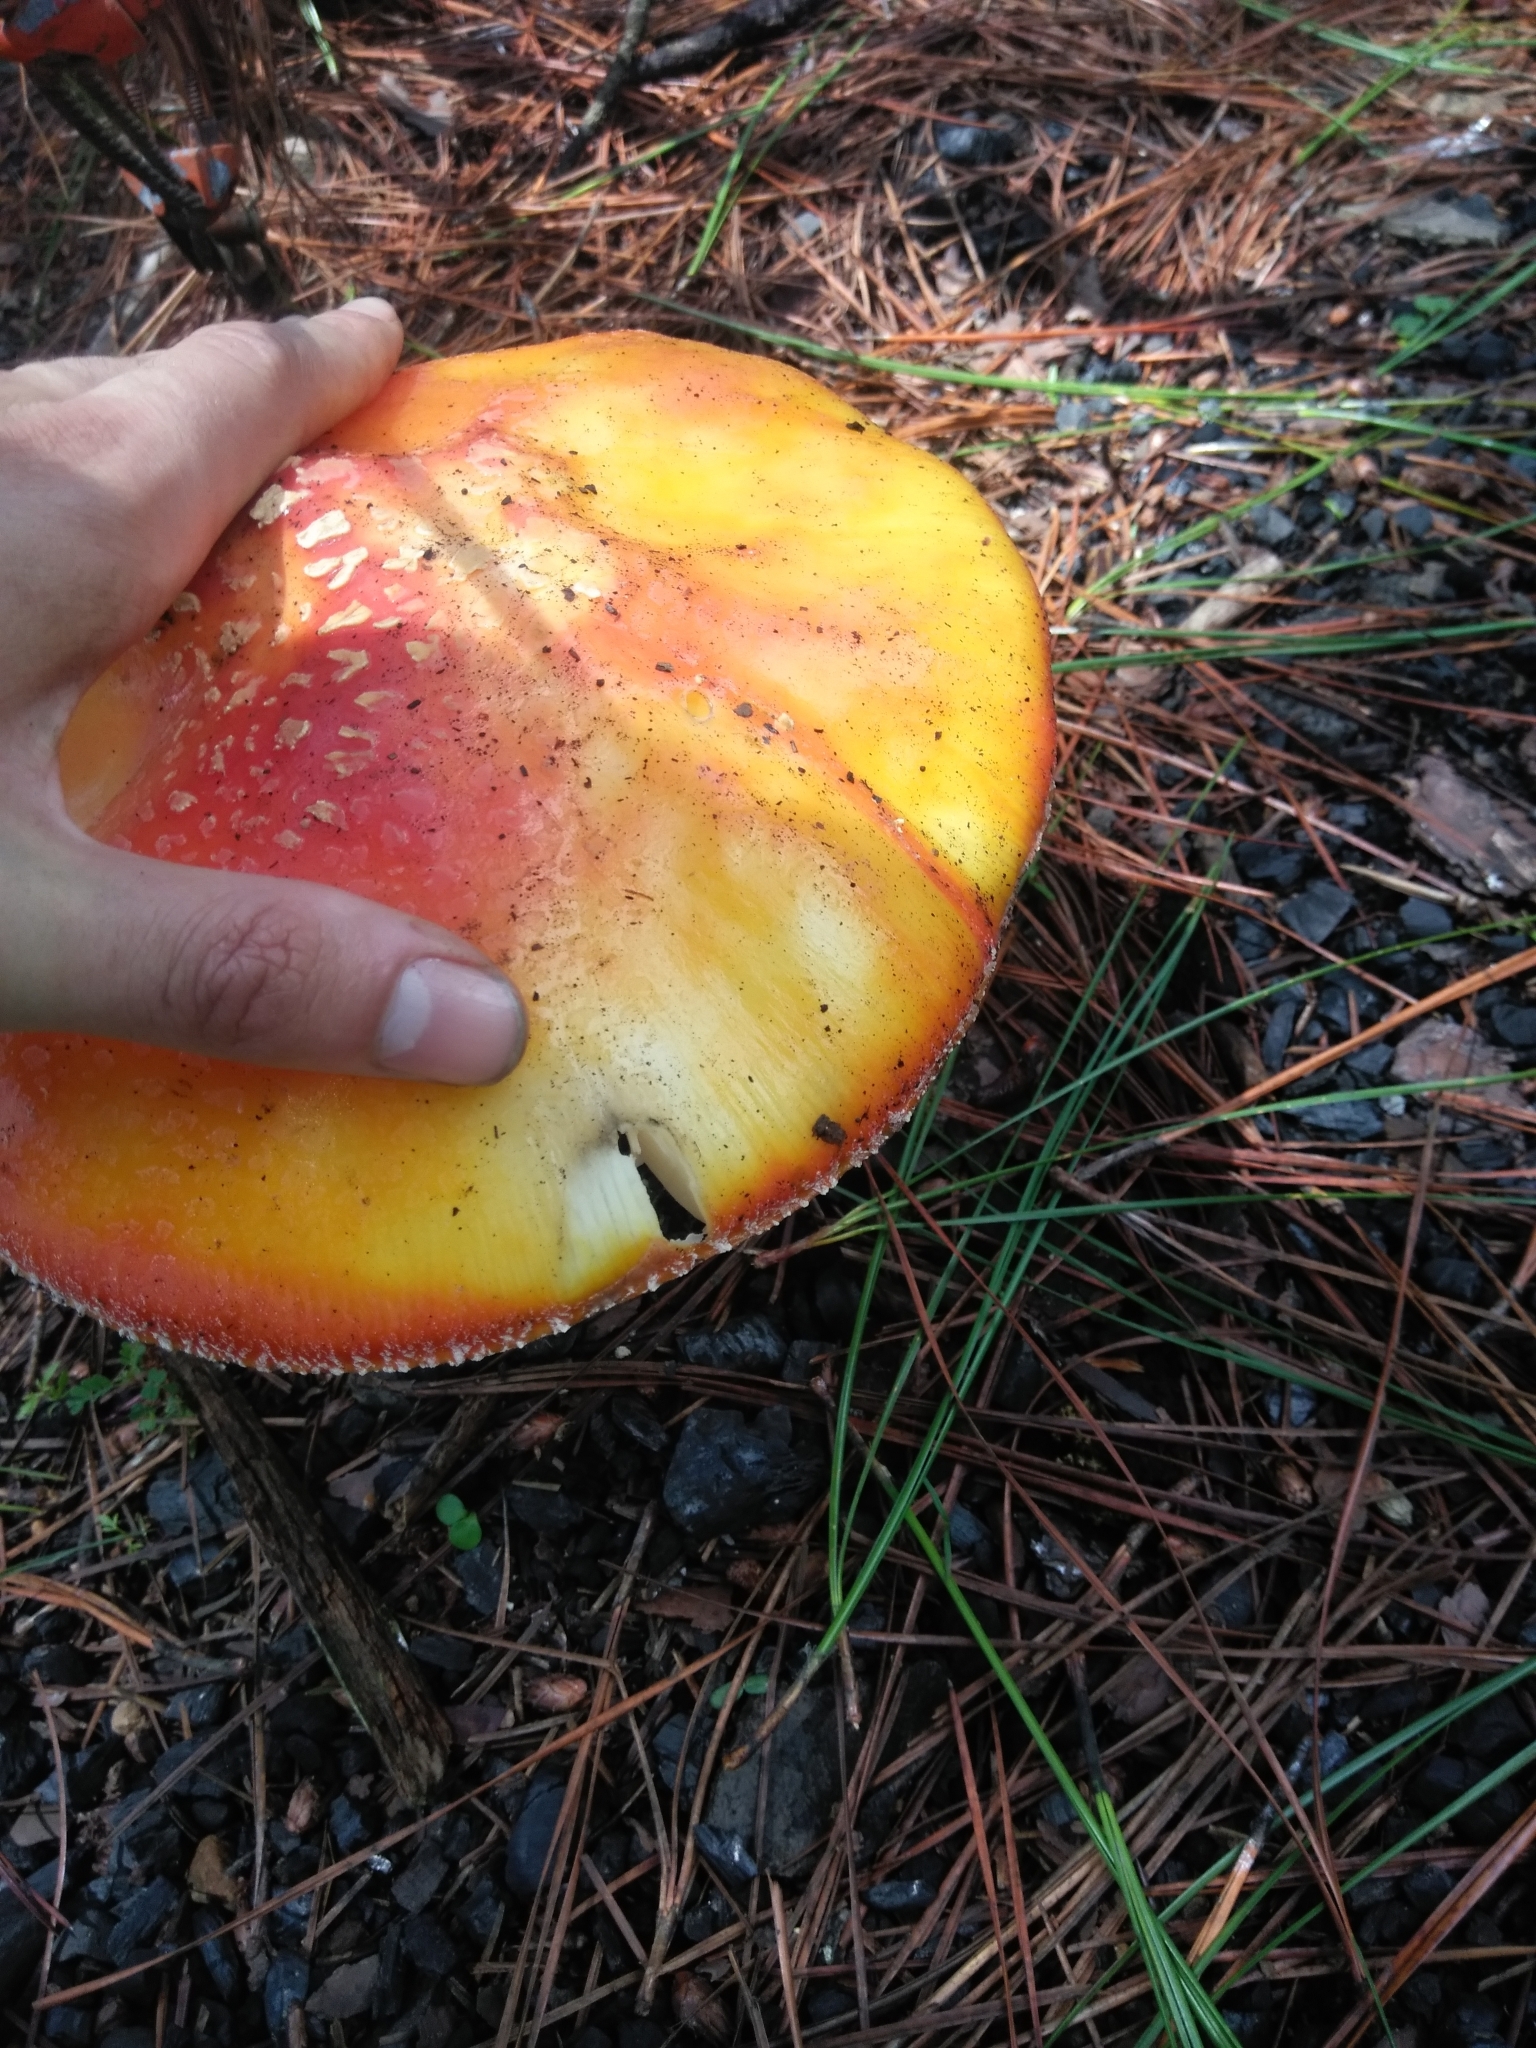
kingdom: Fungi
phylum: Basidiomycota
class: Agaricomycetes
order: Agaricales
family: Amanitaceae
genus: Amanita
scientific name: Amanita muscaria
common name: Fly agaric
